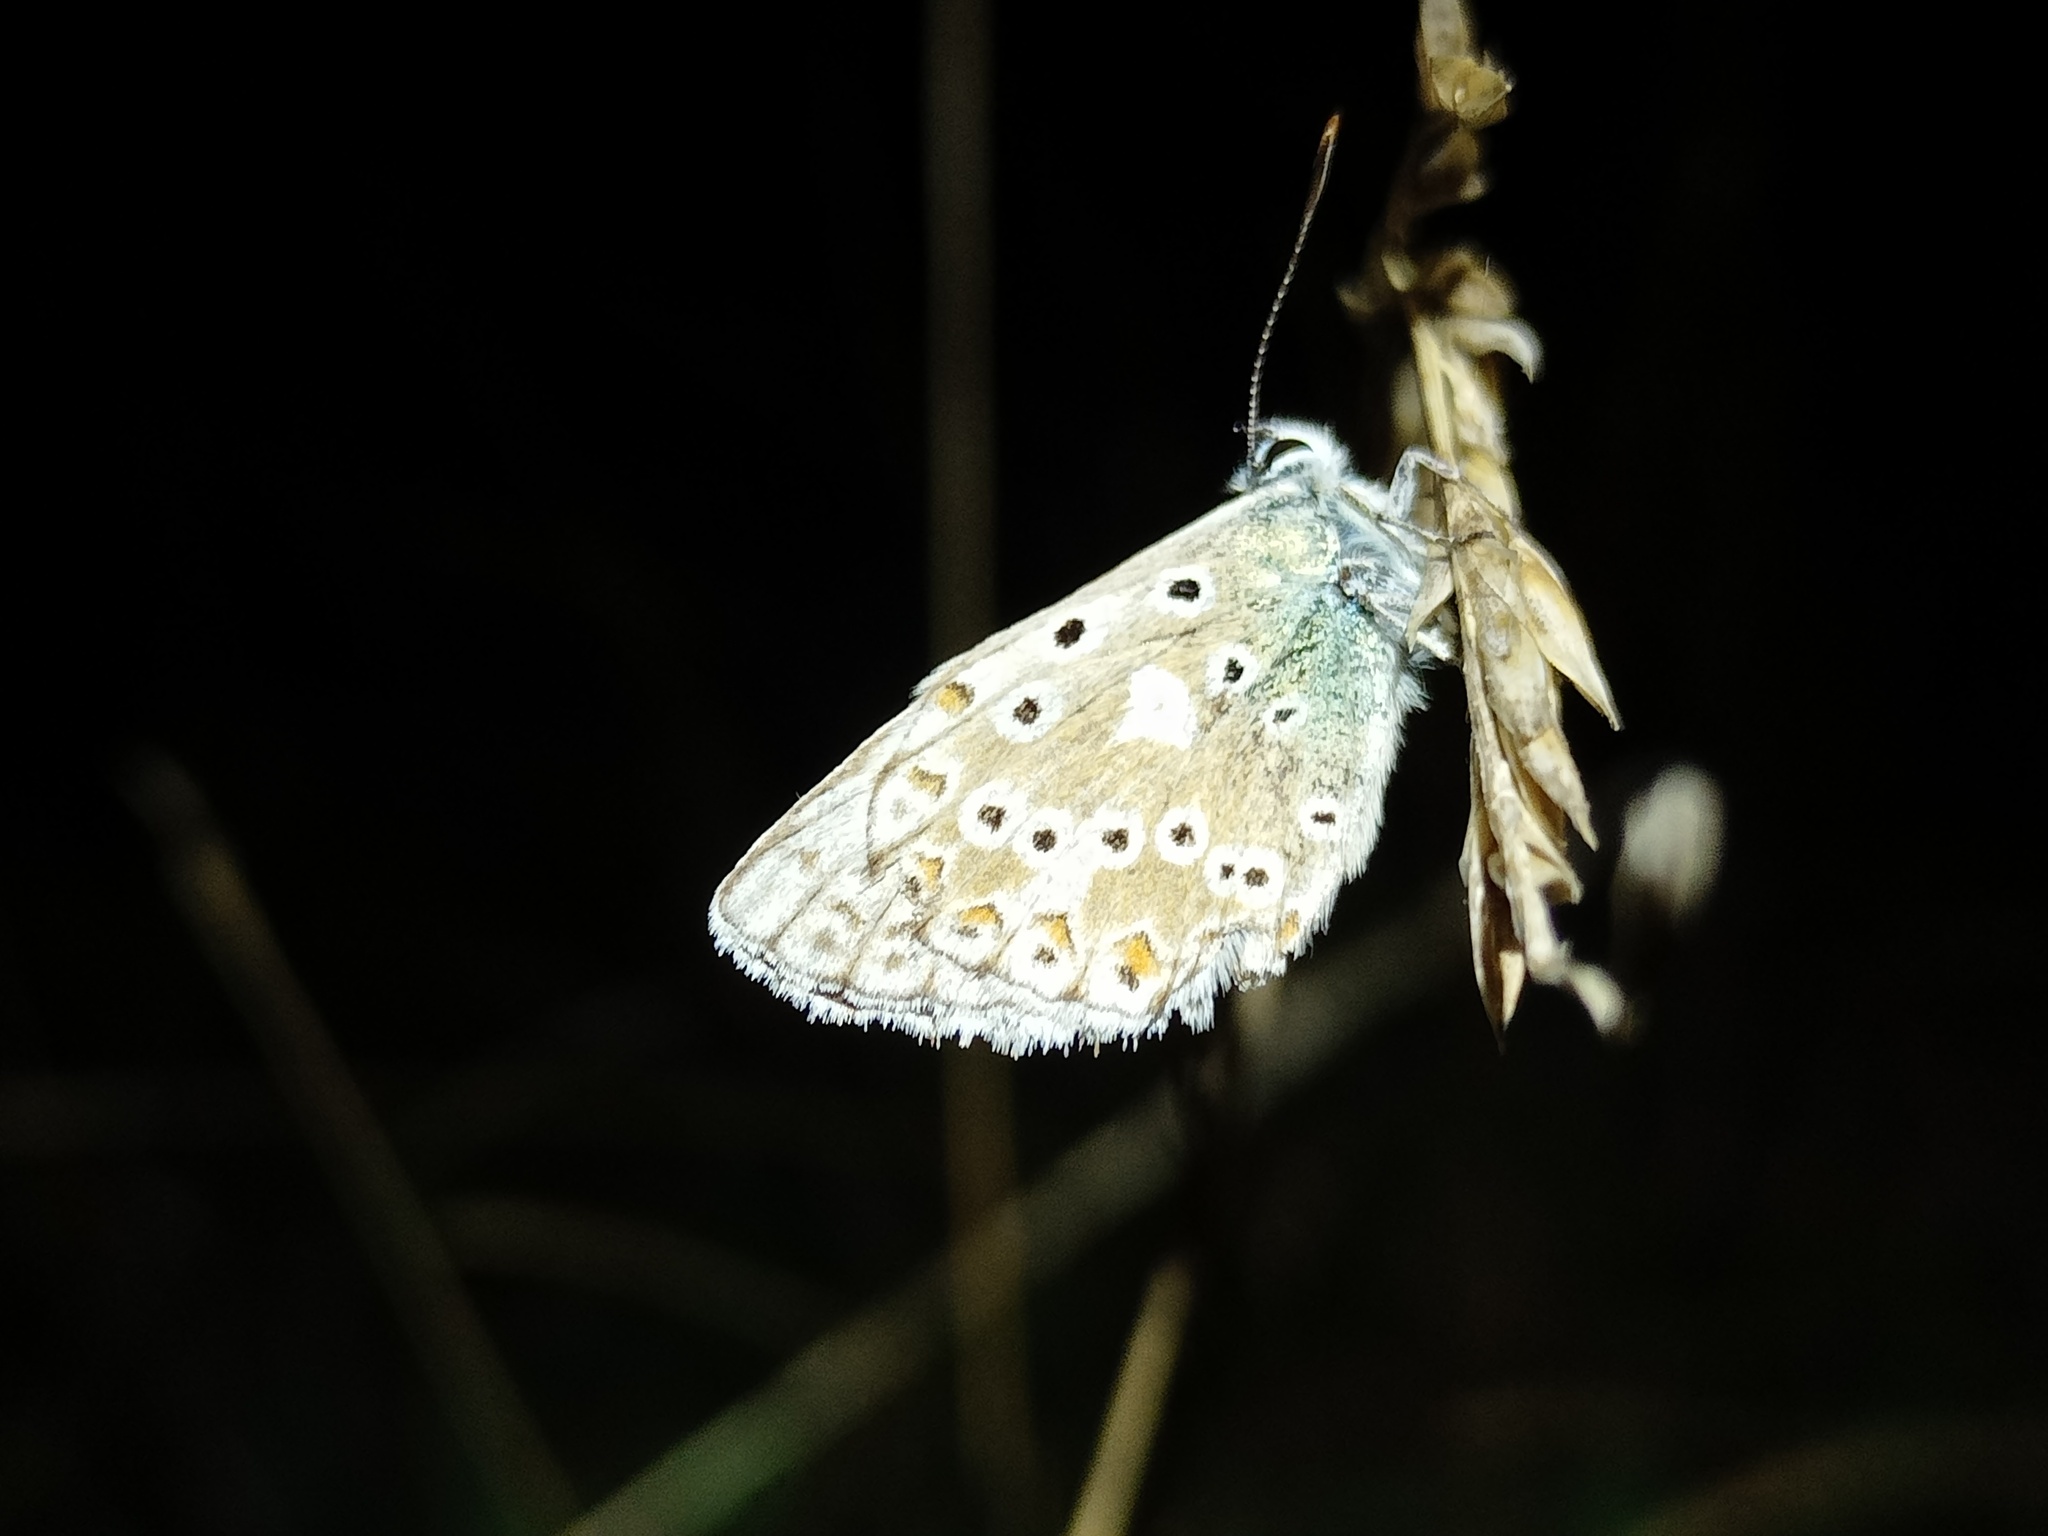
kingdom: Animalia
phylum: Arthropoda
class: Insecta
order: Lepidoptera
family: Lycaenidae
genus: Lysandra
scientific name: Lysandra coridon
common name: Chalkhill blue
